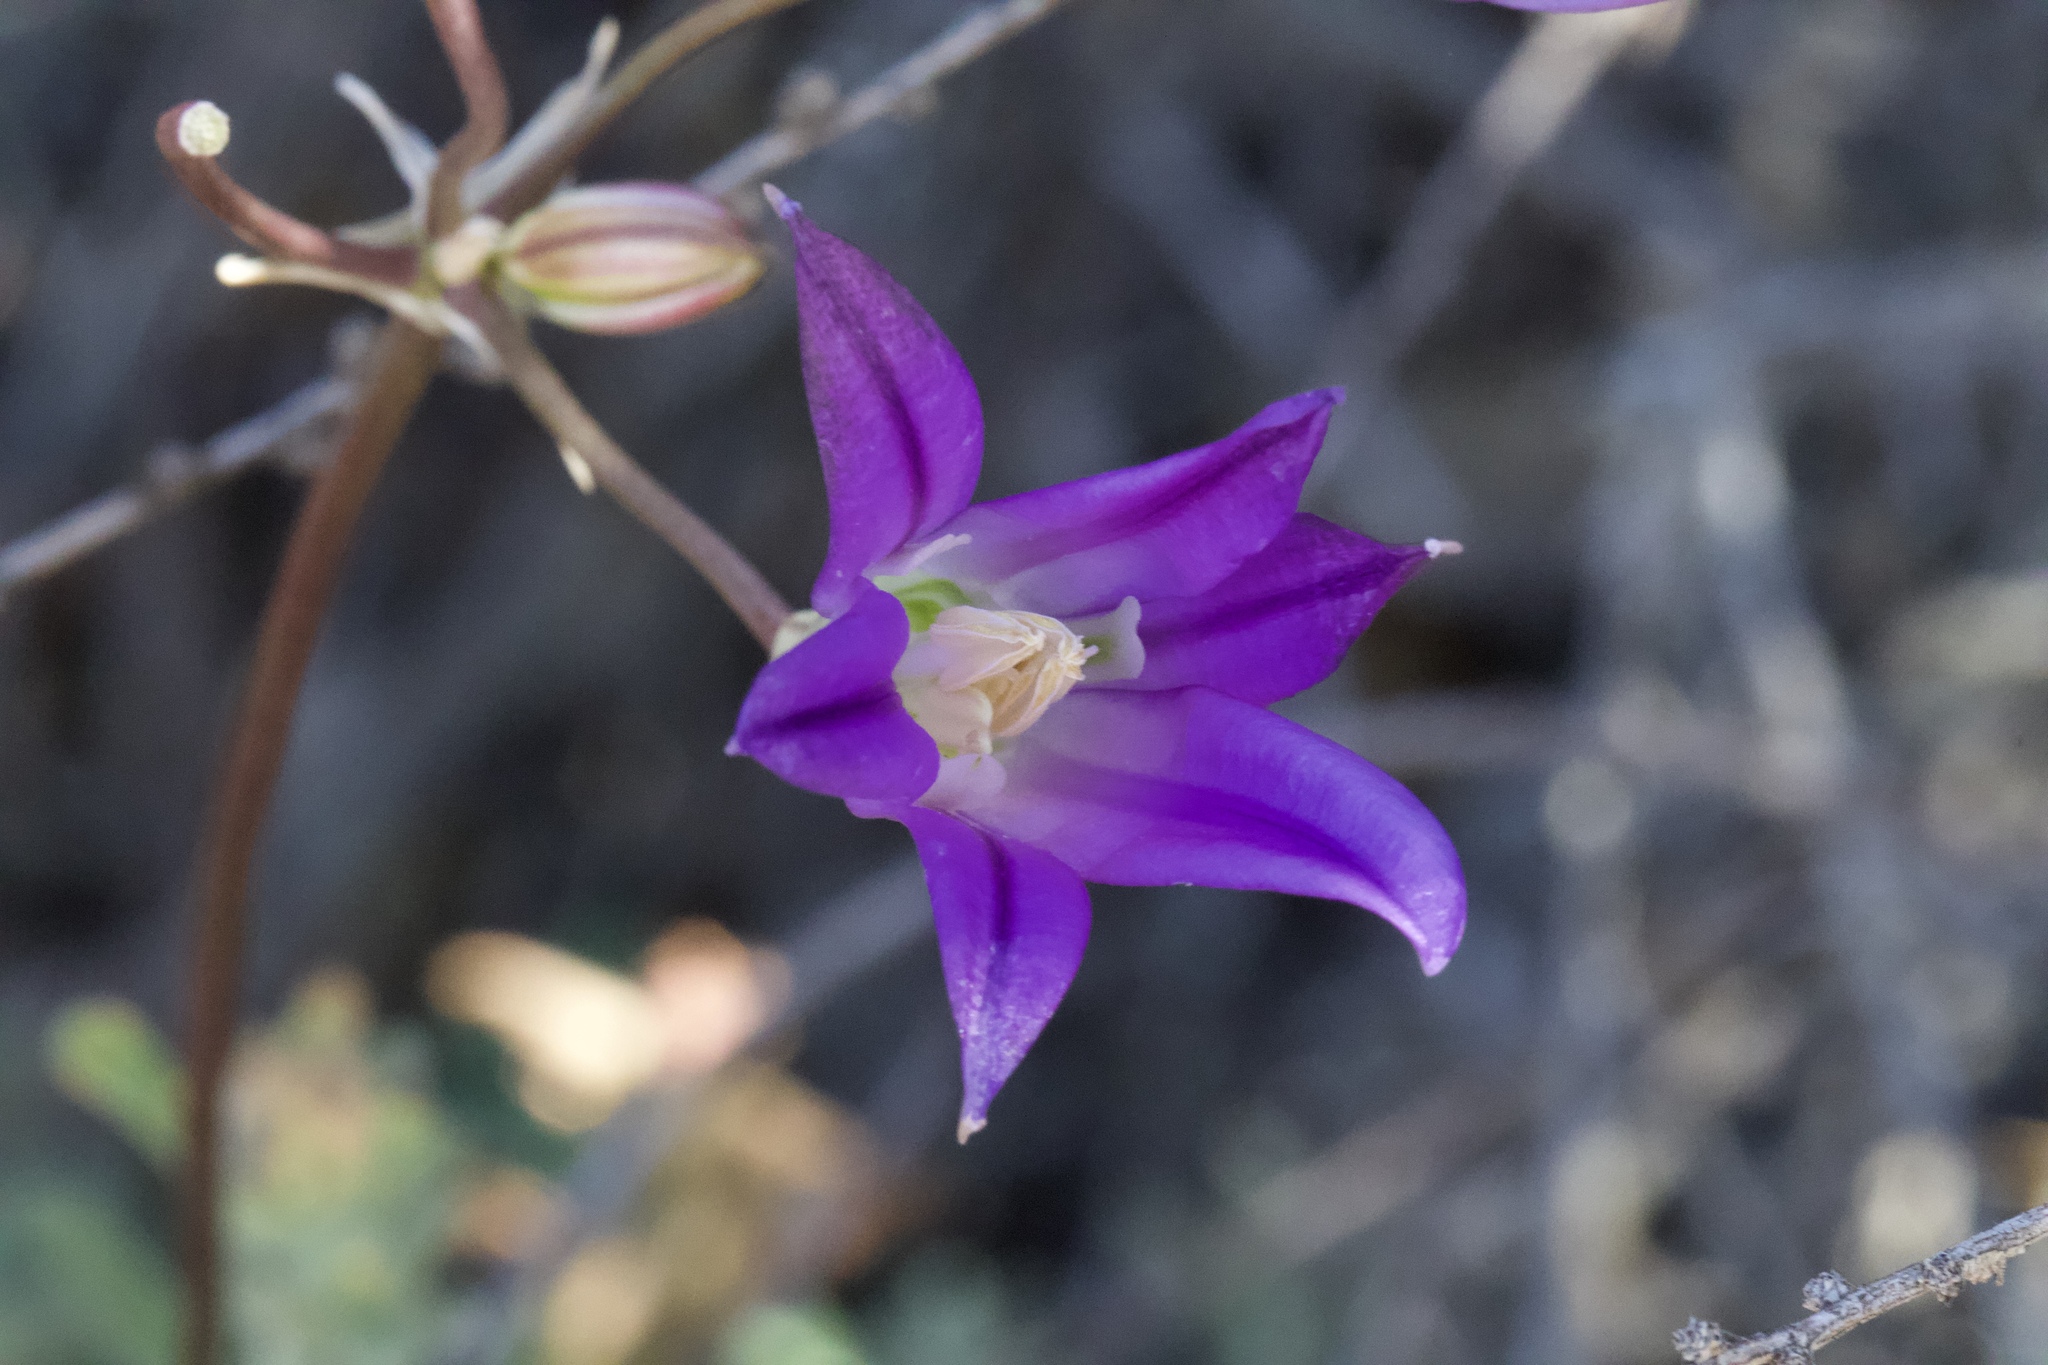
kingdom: Plantae
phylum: Tracheophyta
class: Liliopsida
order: Asparagales
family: Asparagaceae
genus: Brodiaea
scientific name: Brodiaea elegans
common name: Elegant cluster-lily
